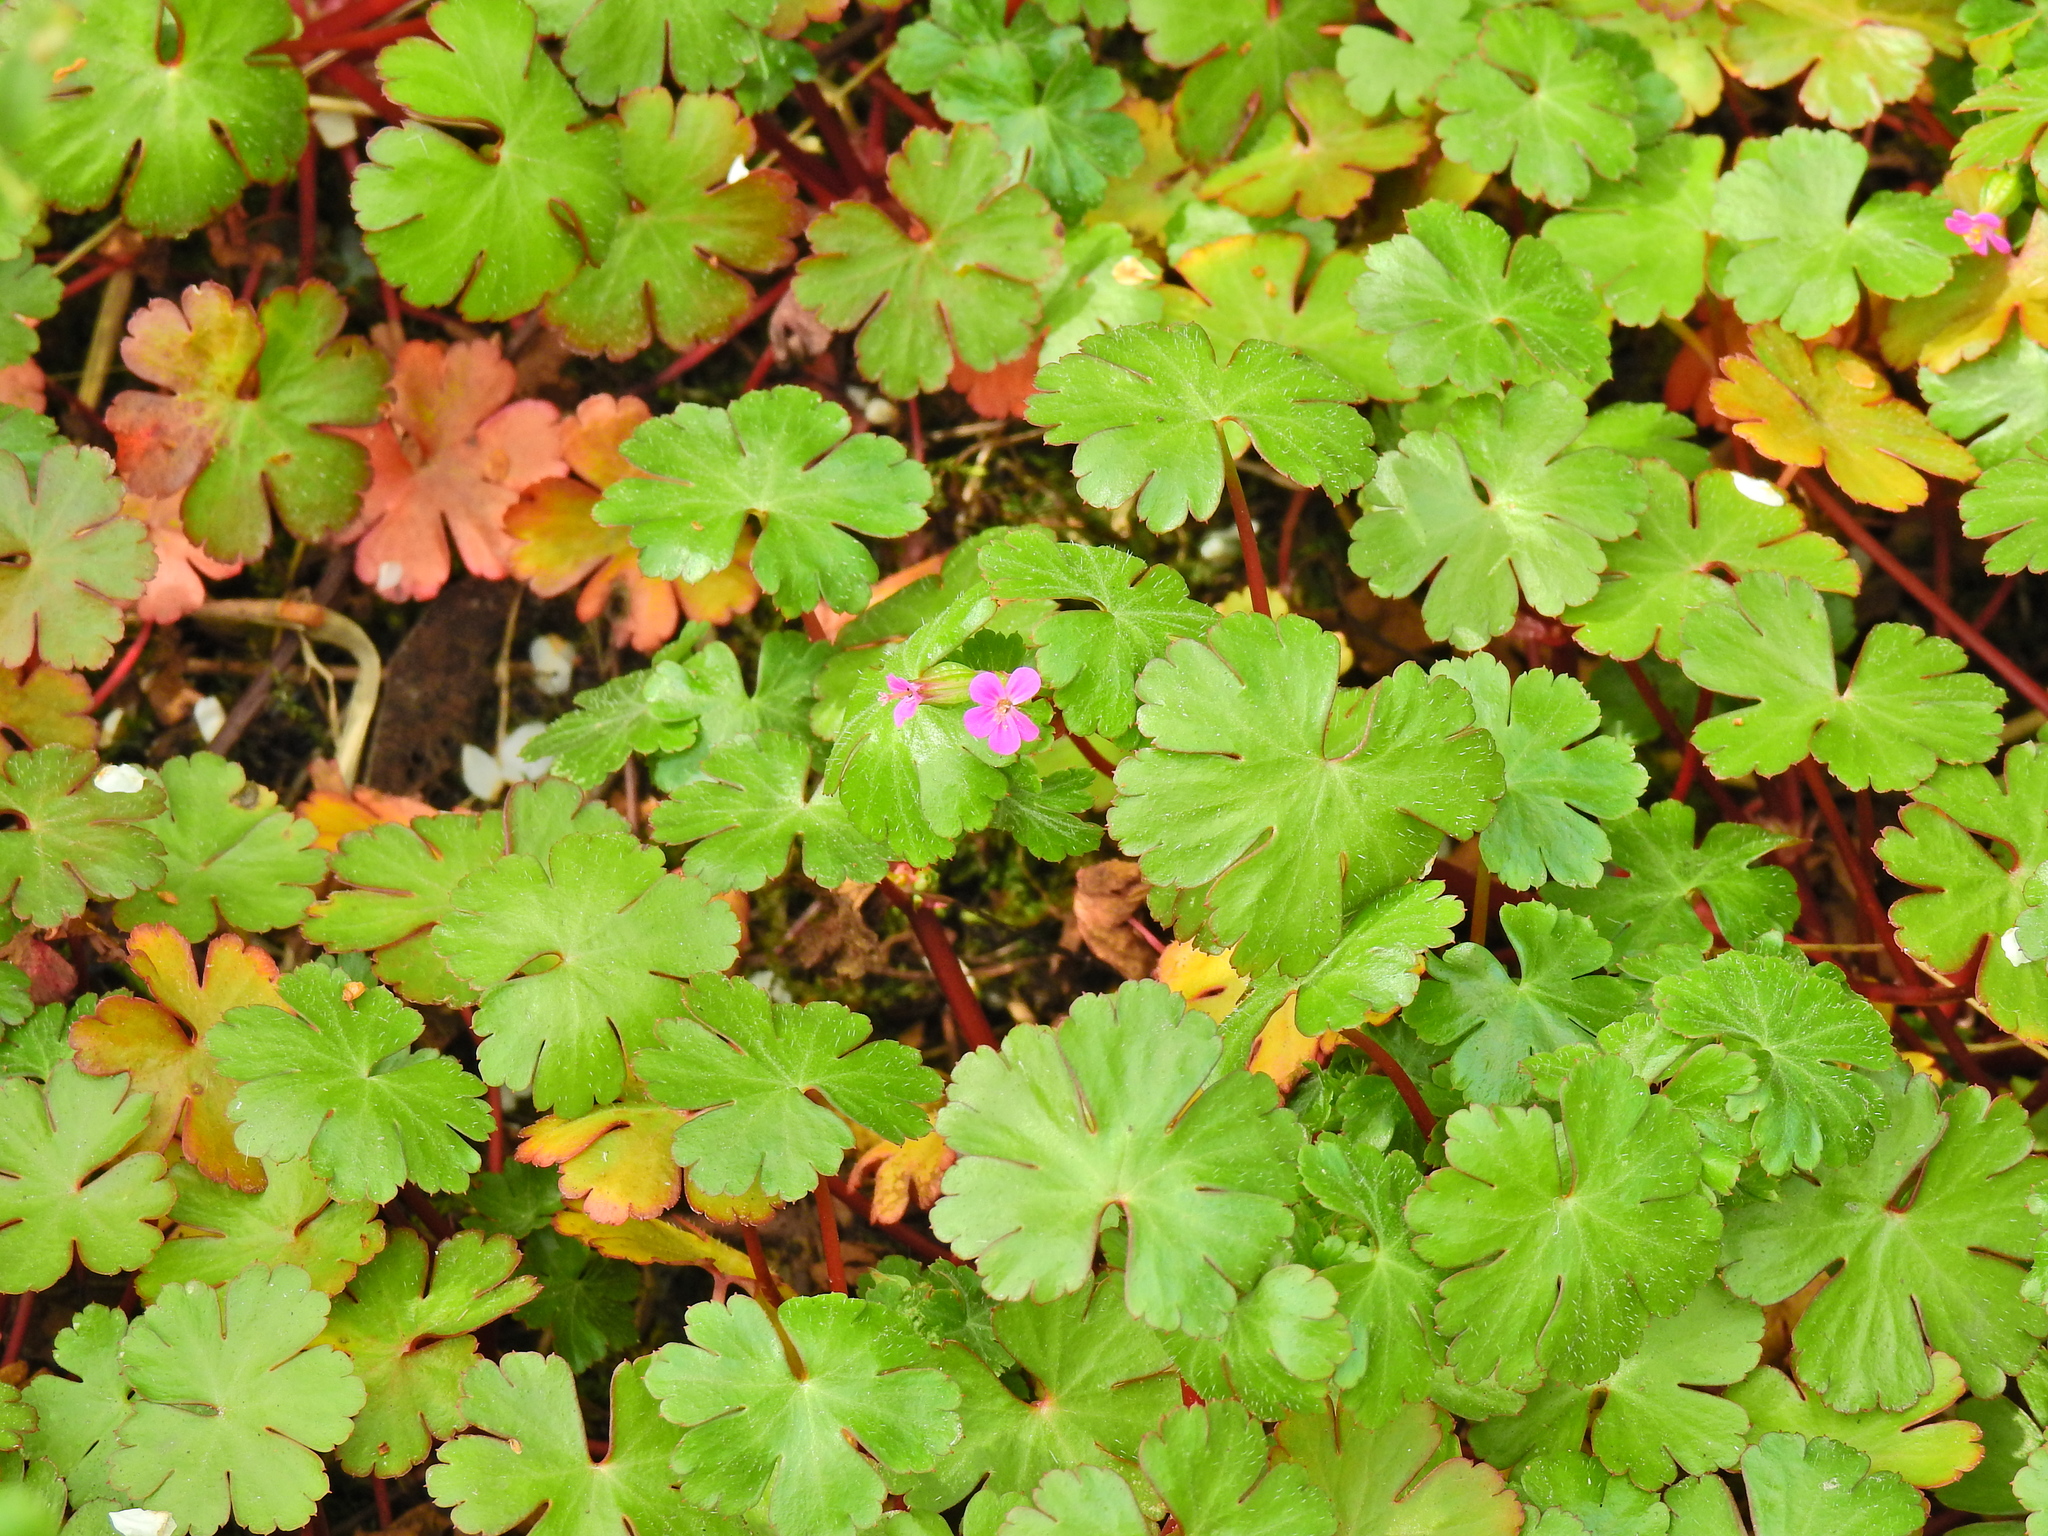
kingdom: Plantae
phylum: Tracheophyta
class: Magnoliopsida
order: Geraniales
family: Geraniaceae
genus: Geranium
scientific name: Geranium lucidum
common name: Shining crane's-bill
